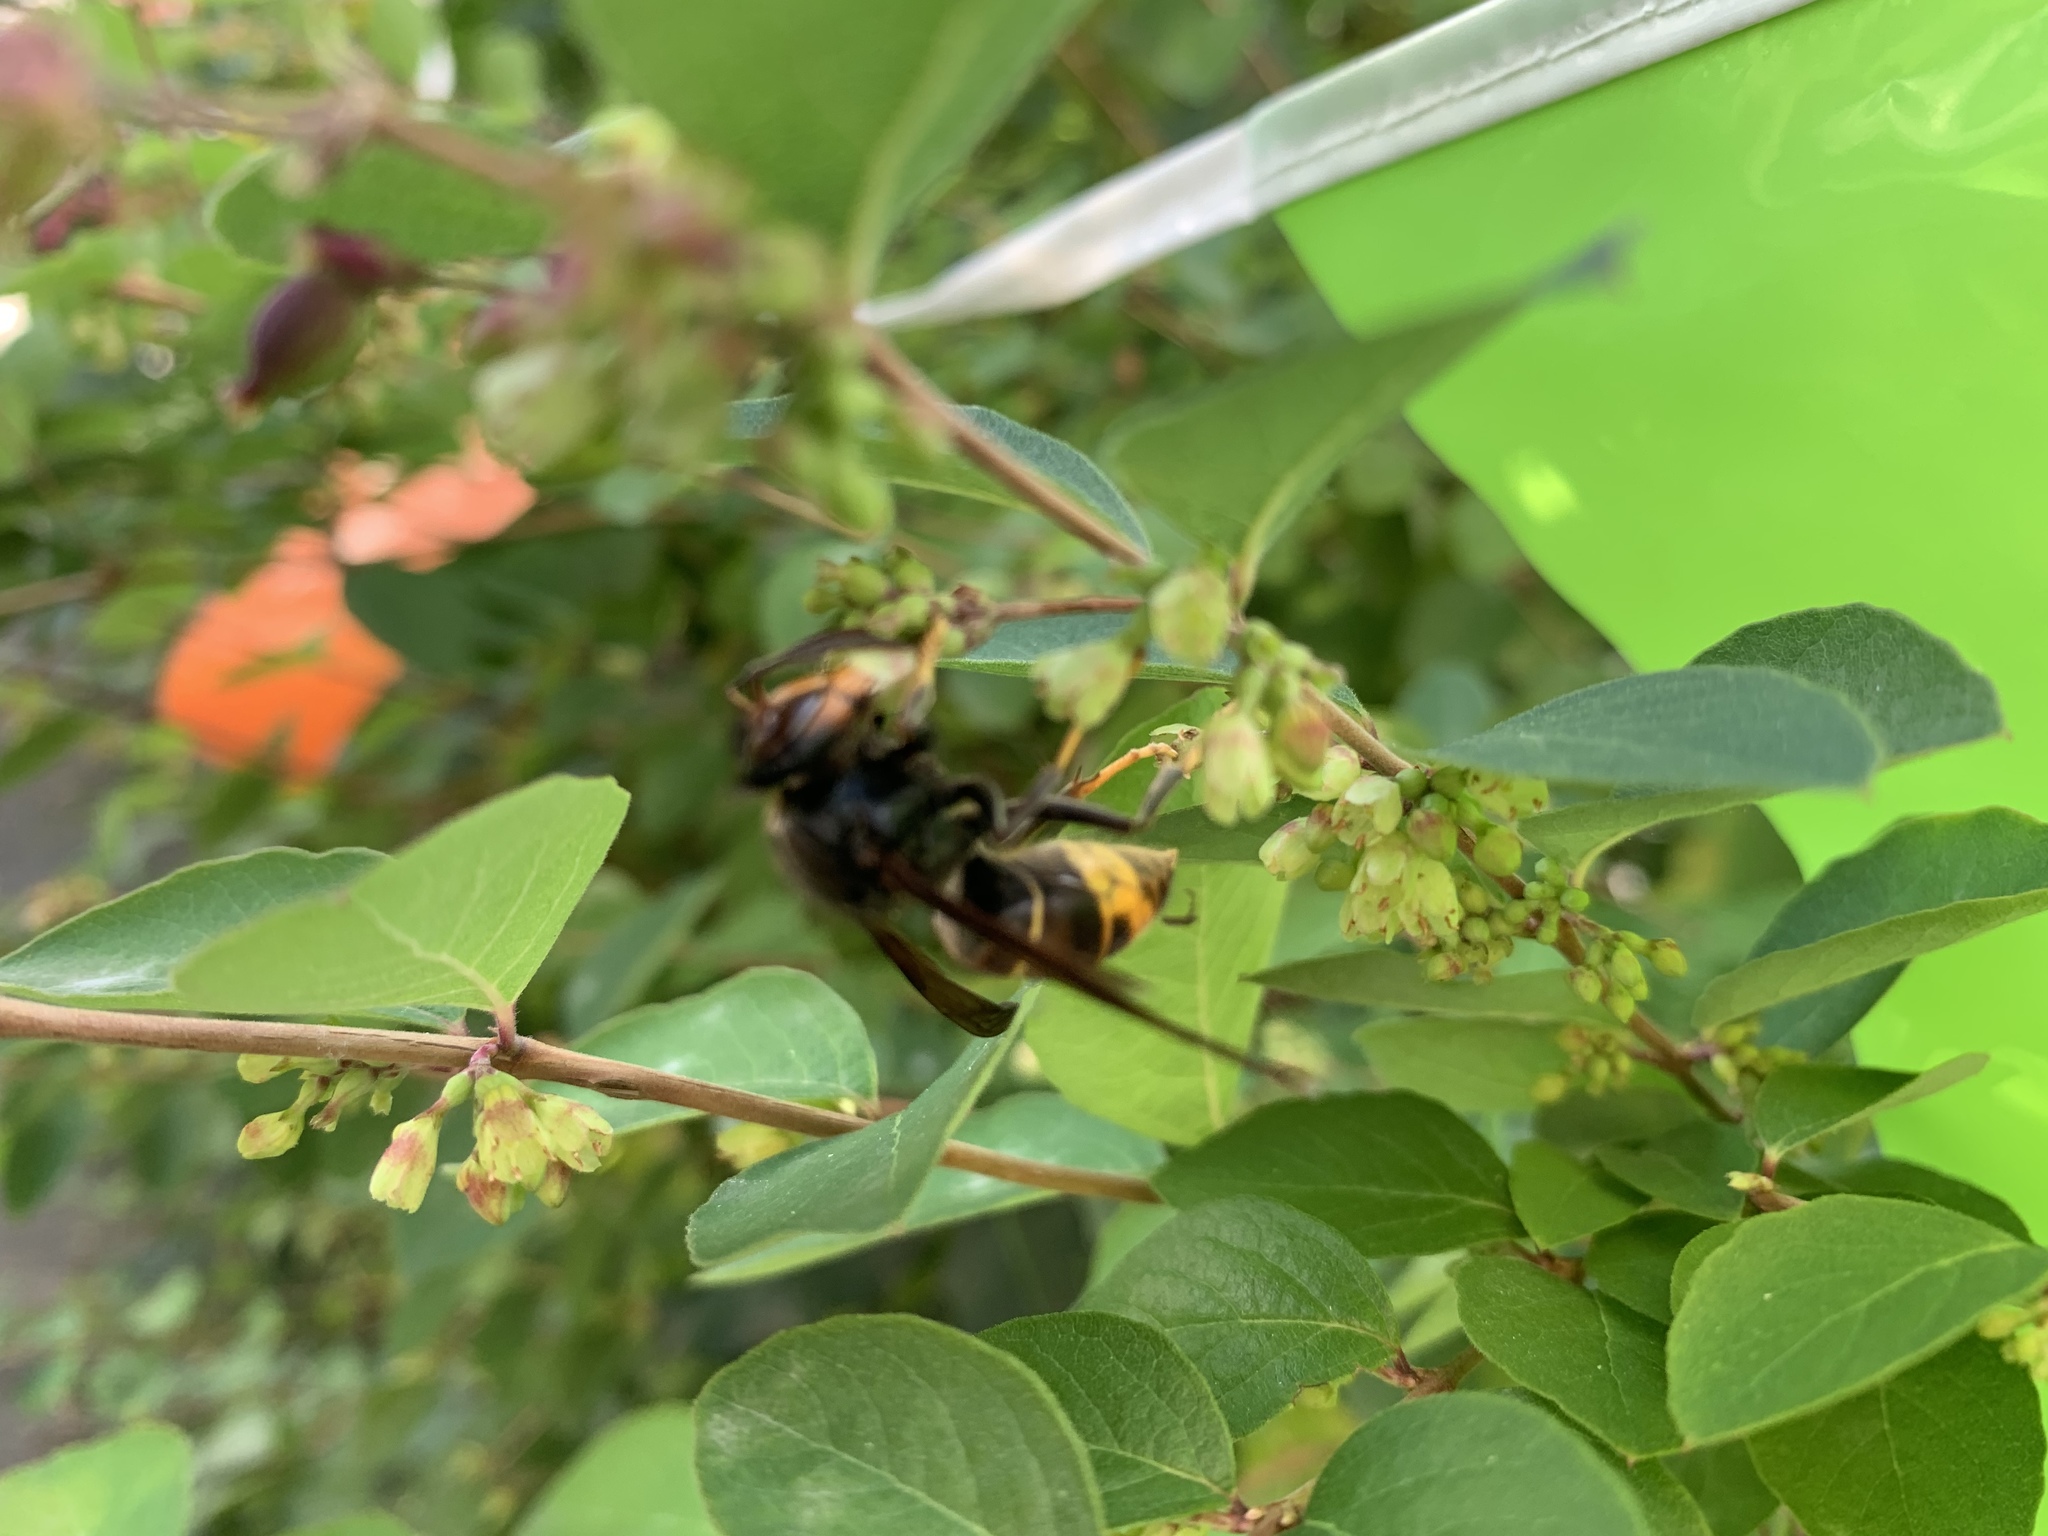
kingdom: Animalia
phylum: Arthropoda
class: Insecta
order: Hymenoptera
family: Vespidae
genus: Vespa
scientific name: Vespa velutina
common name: Asian hornet
